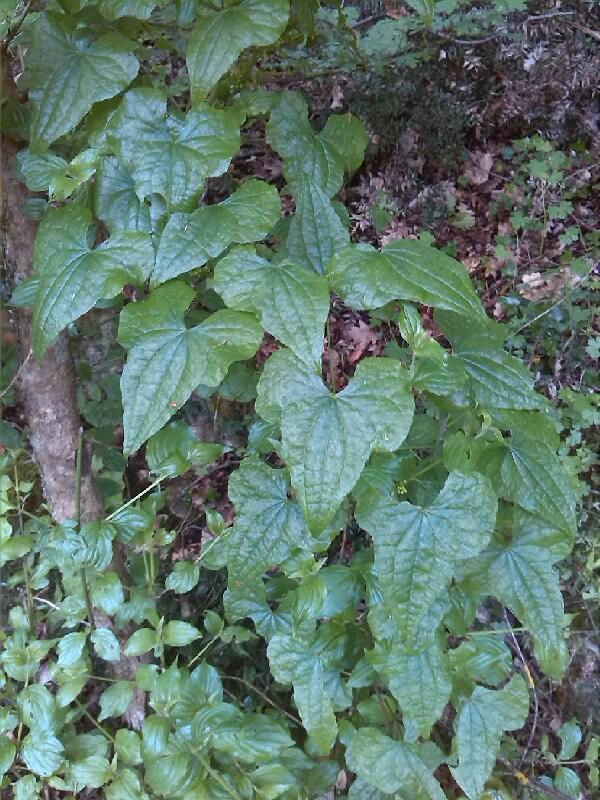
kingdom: Plantae
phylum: Tracheophyta
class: Liliopsida
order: Dioscoreales
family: Dioscoreaceae
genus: Dioscorea
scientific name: Dioscorea communis
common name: Black-bindweed
